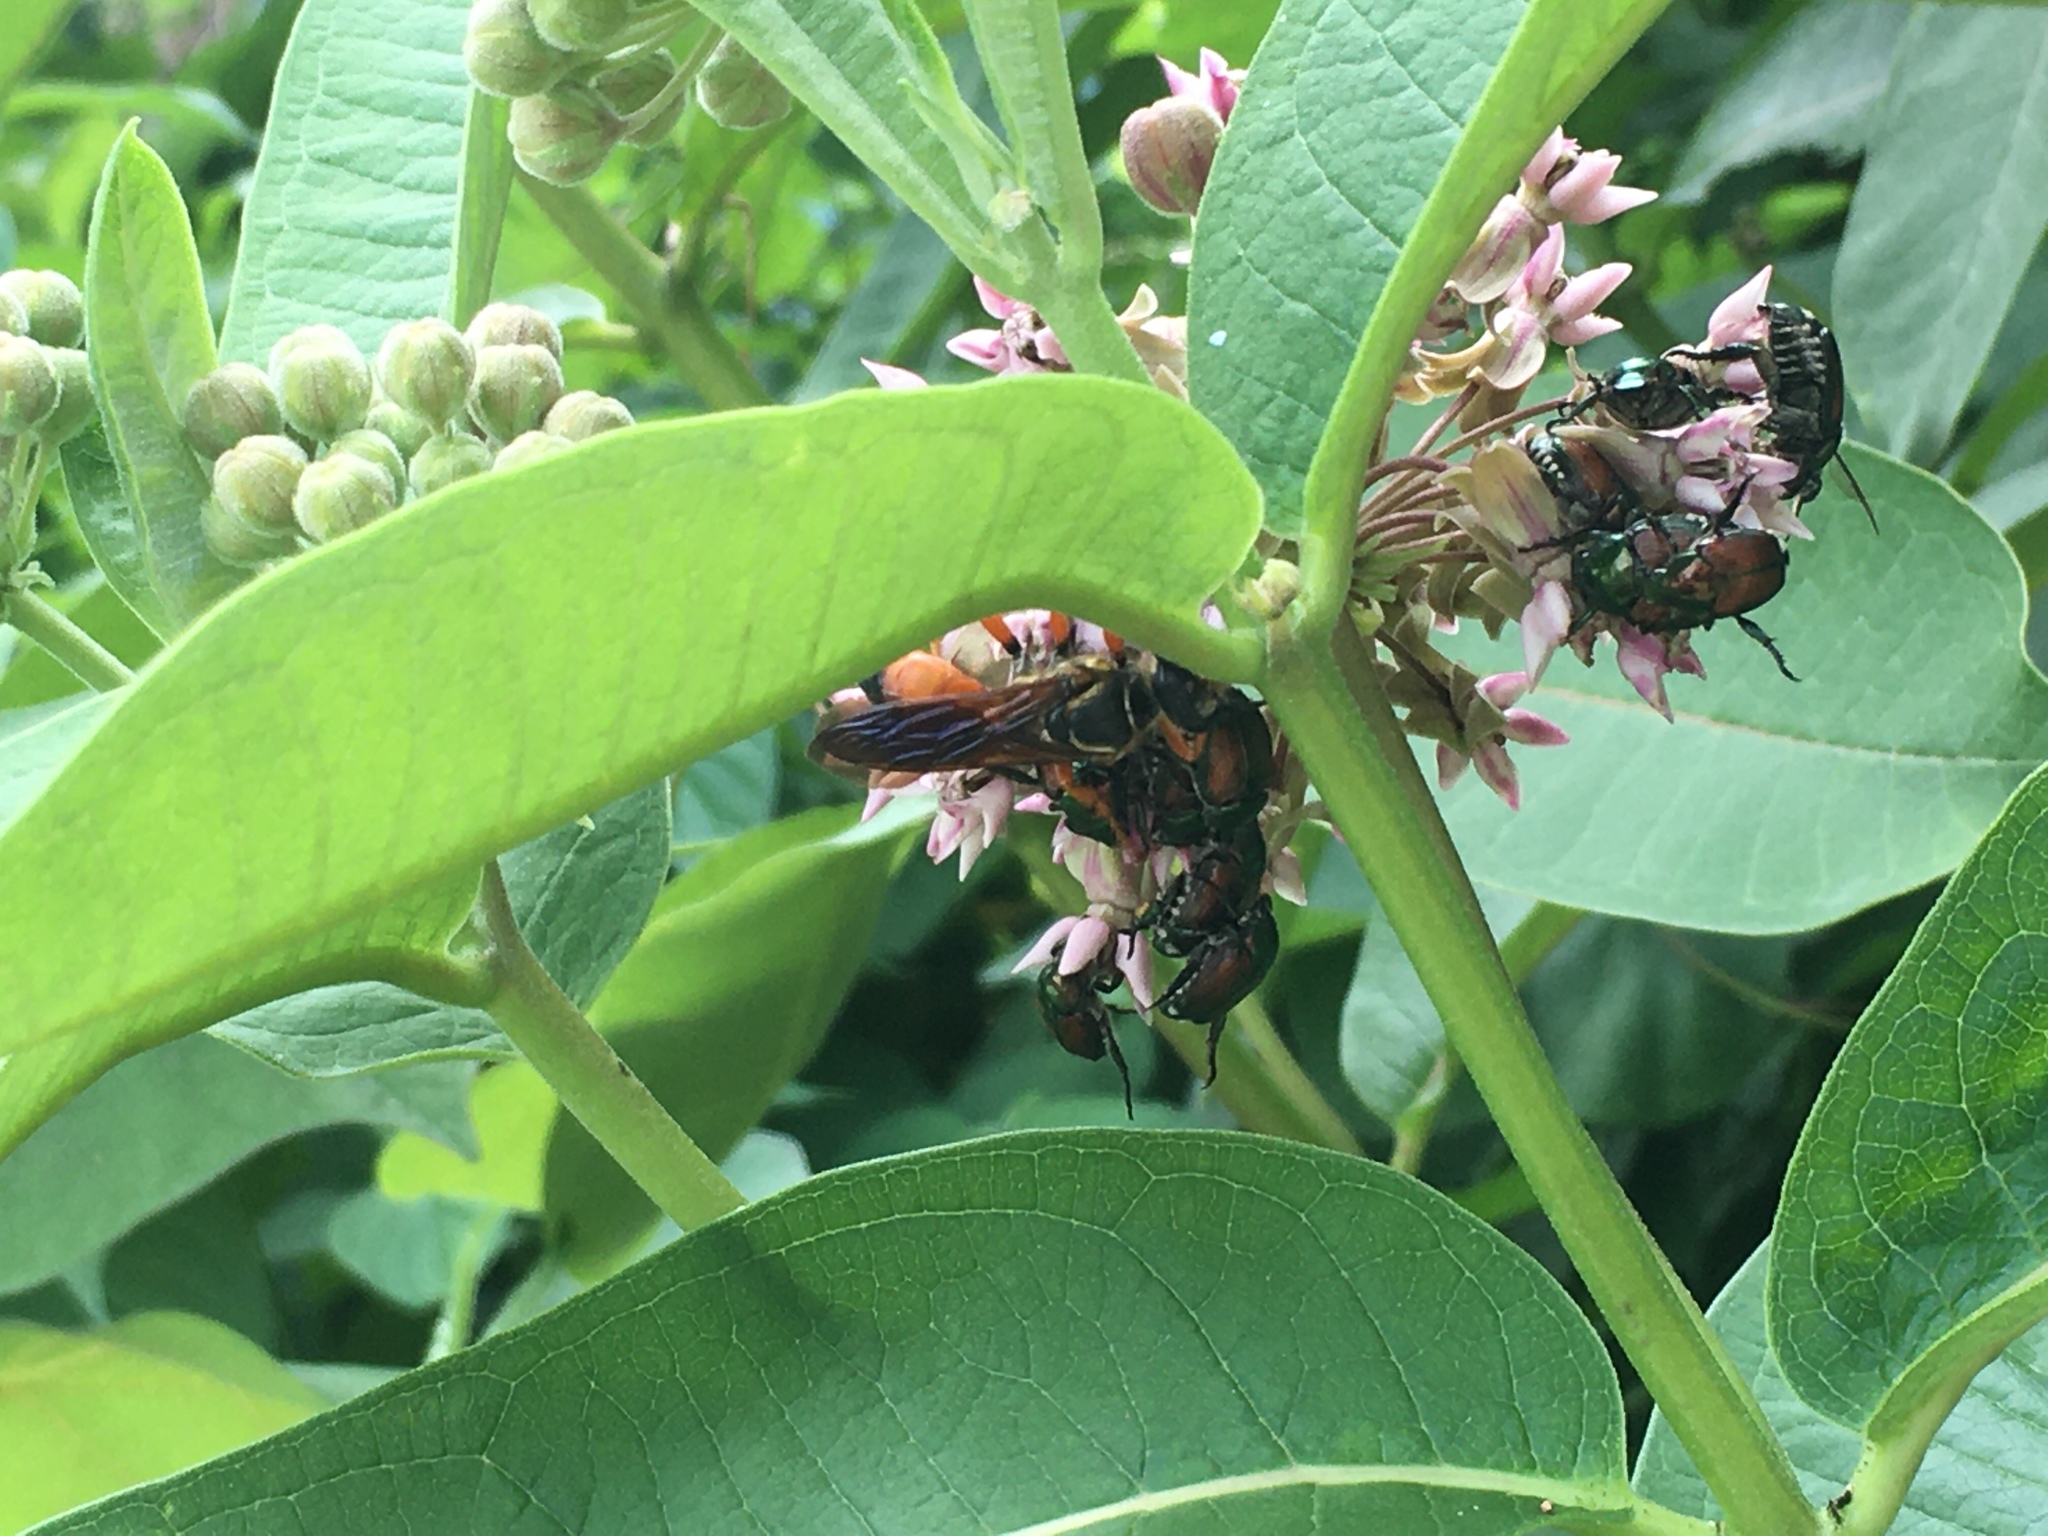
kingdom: Animalia
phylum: Arthropoda
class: Insecta
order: Hymenoptera
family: Sphecidae
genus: Sphex
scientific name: Sphex ichneumoneus
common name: Great golden digger wasp
